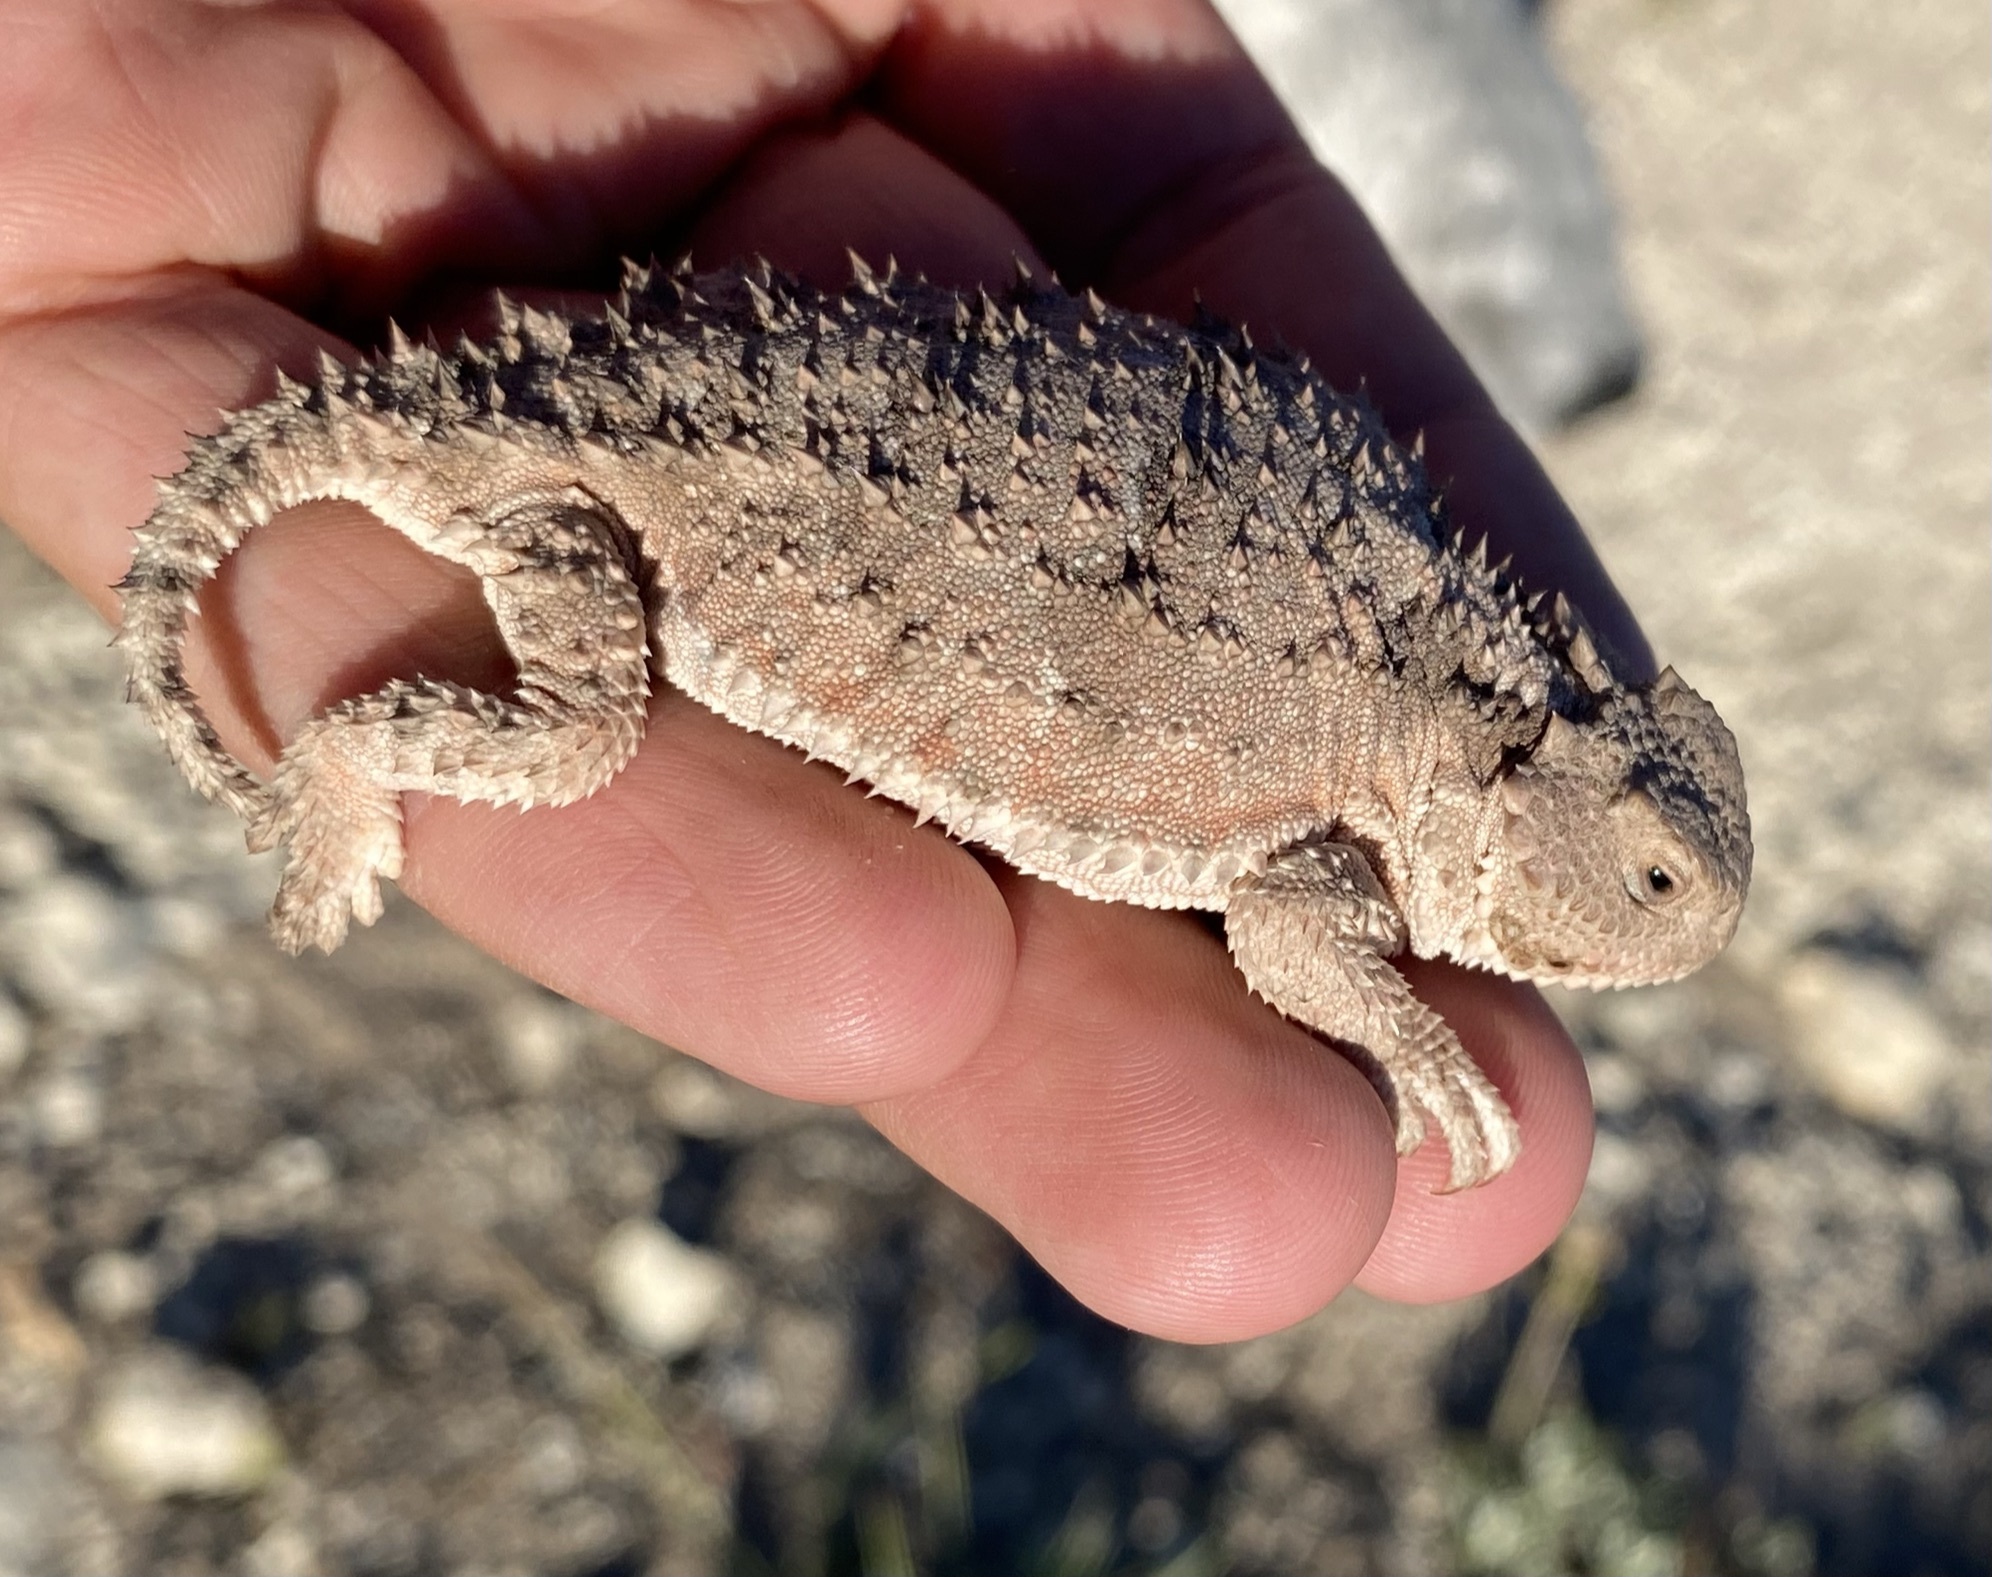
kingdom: Animalia
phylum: Chordata
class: Squamata
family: Phrynosomatidae
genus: Phrynosoma
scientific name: Phrynosoma hernandesi
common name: Greater short-horned lizard
